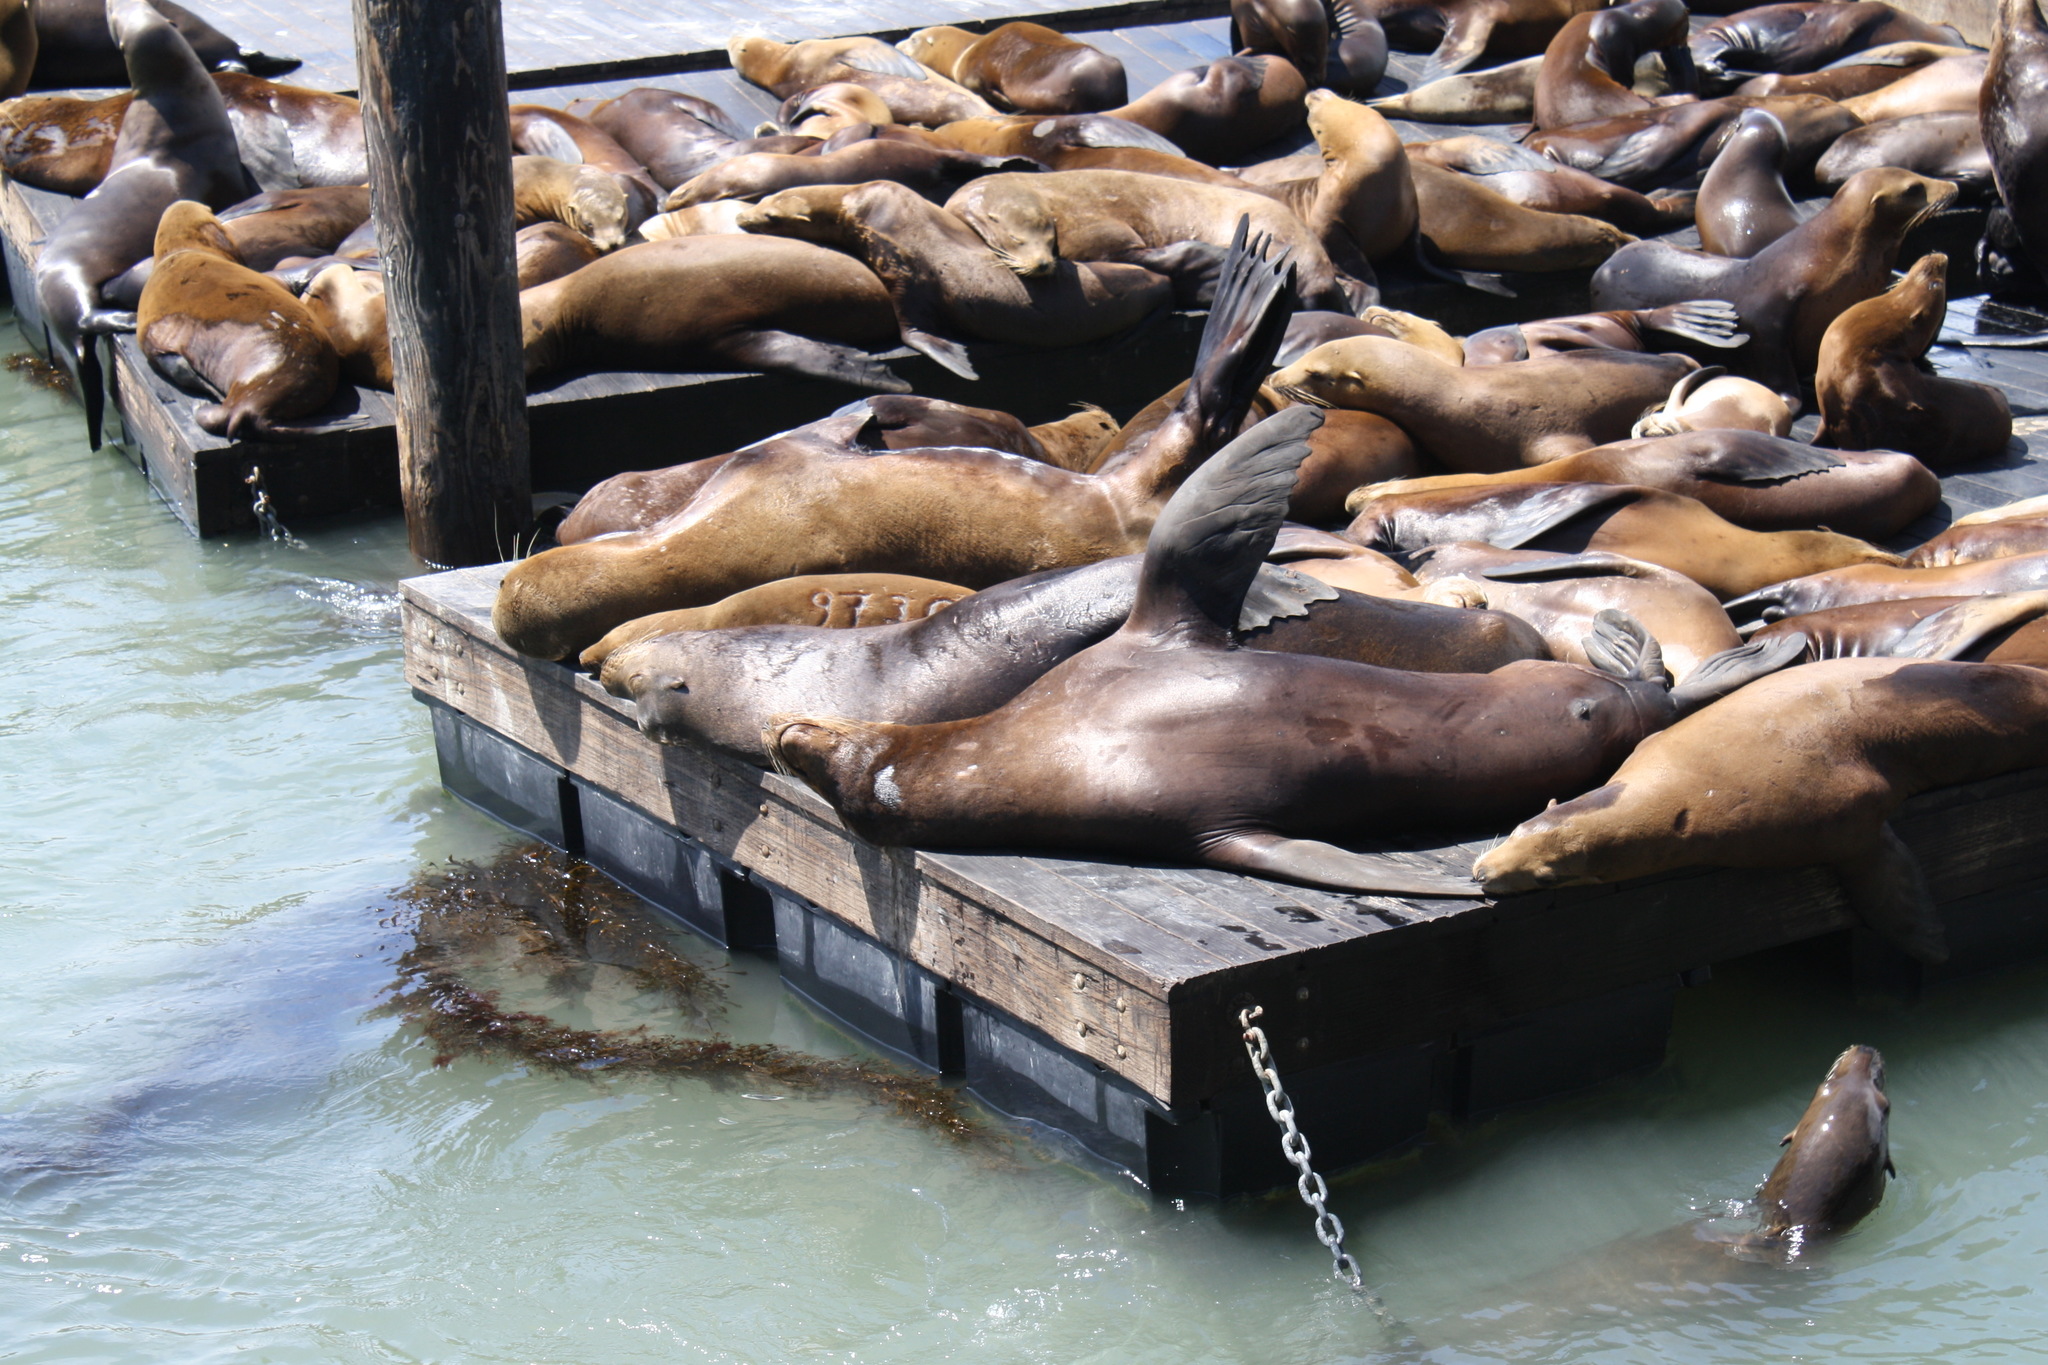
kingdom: Animalia
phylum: Chordata
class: Mammalia
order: Carnivora
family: Otariidae
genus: Zalophus
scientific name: Zalophus californianus
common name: California sea lion
